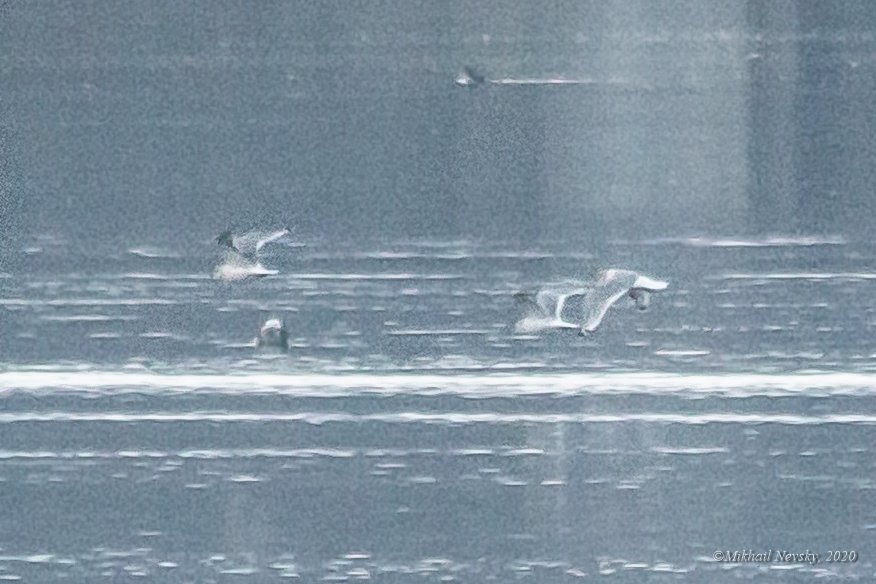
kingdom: Animalia
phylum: Chordata
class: Aves
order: Charadriiformes
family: Laridae
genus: Rissa
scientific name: Rissa tridactyla
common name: Black-legged kittiwake
